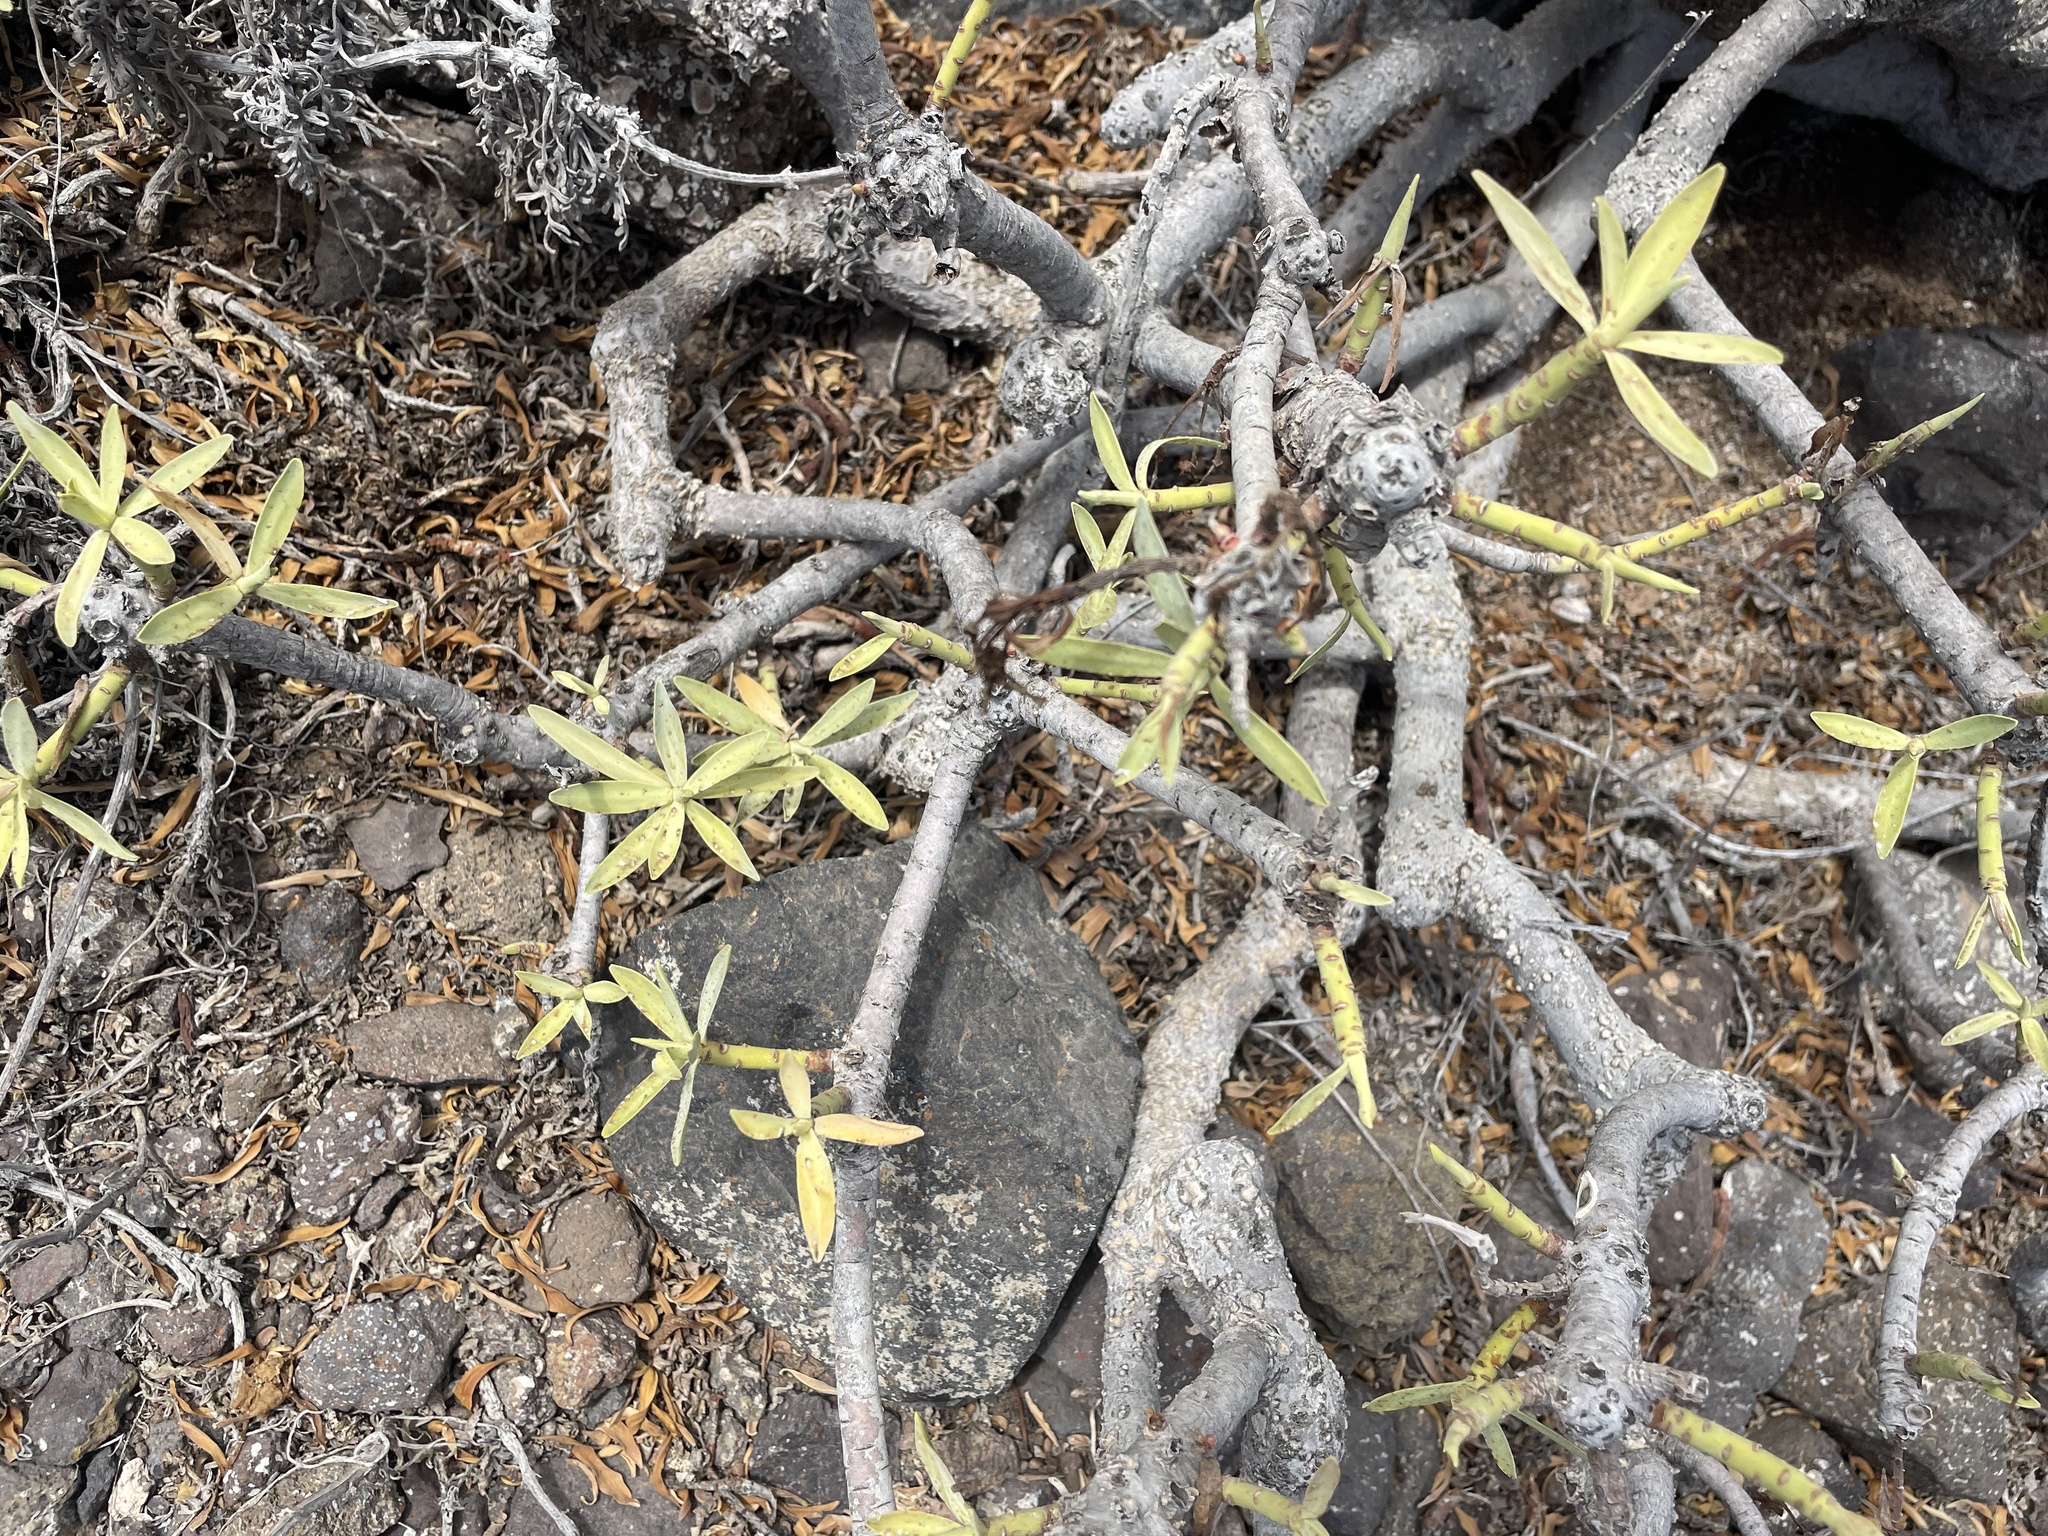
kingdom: Plantae
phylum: Tracheophyta
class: Magnoliopsida
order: Malpighiales
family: Euphorbiaceae
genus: Euphorbia
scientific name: Euphorbia balsamifera
